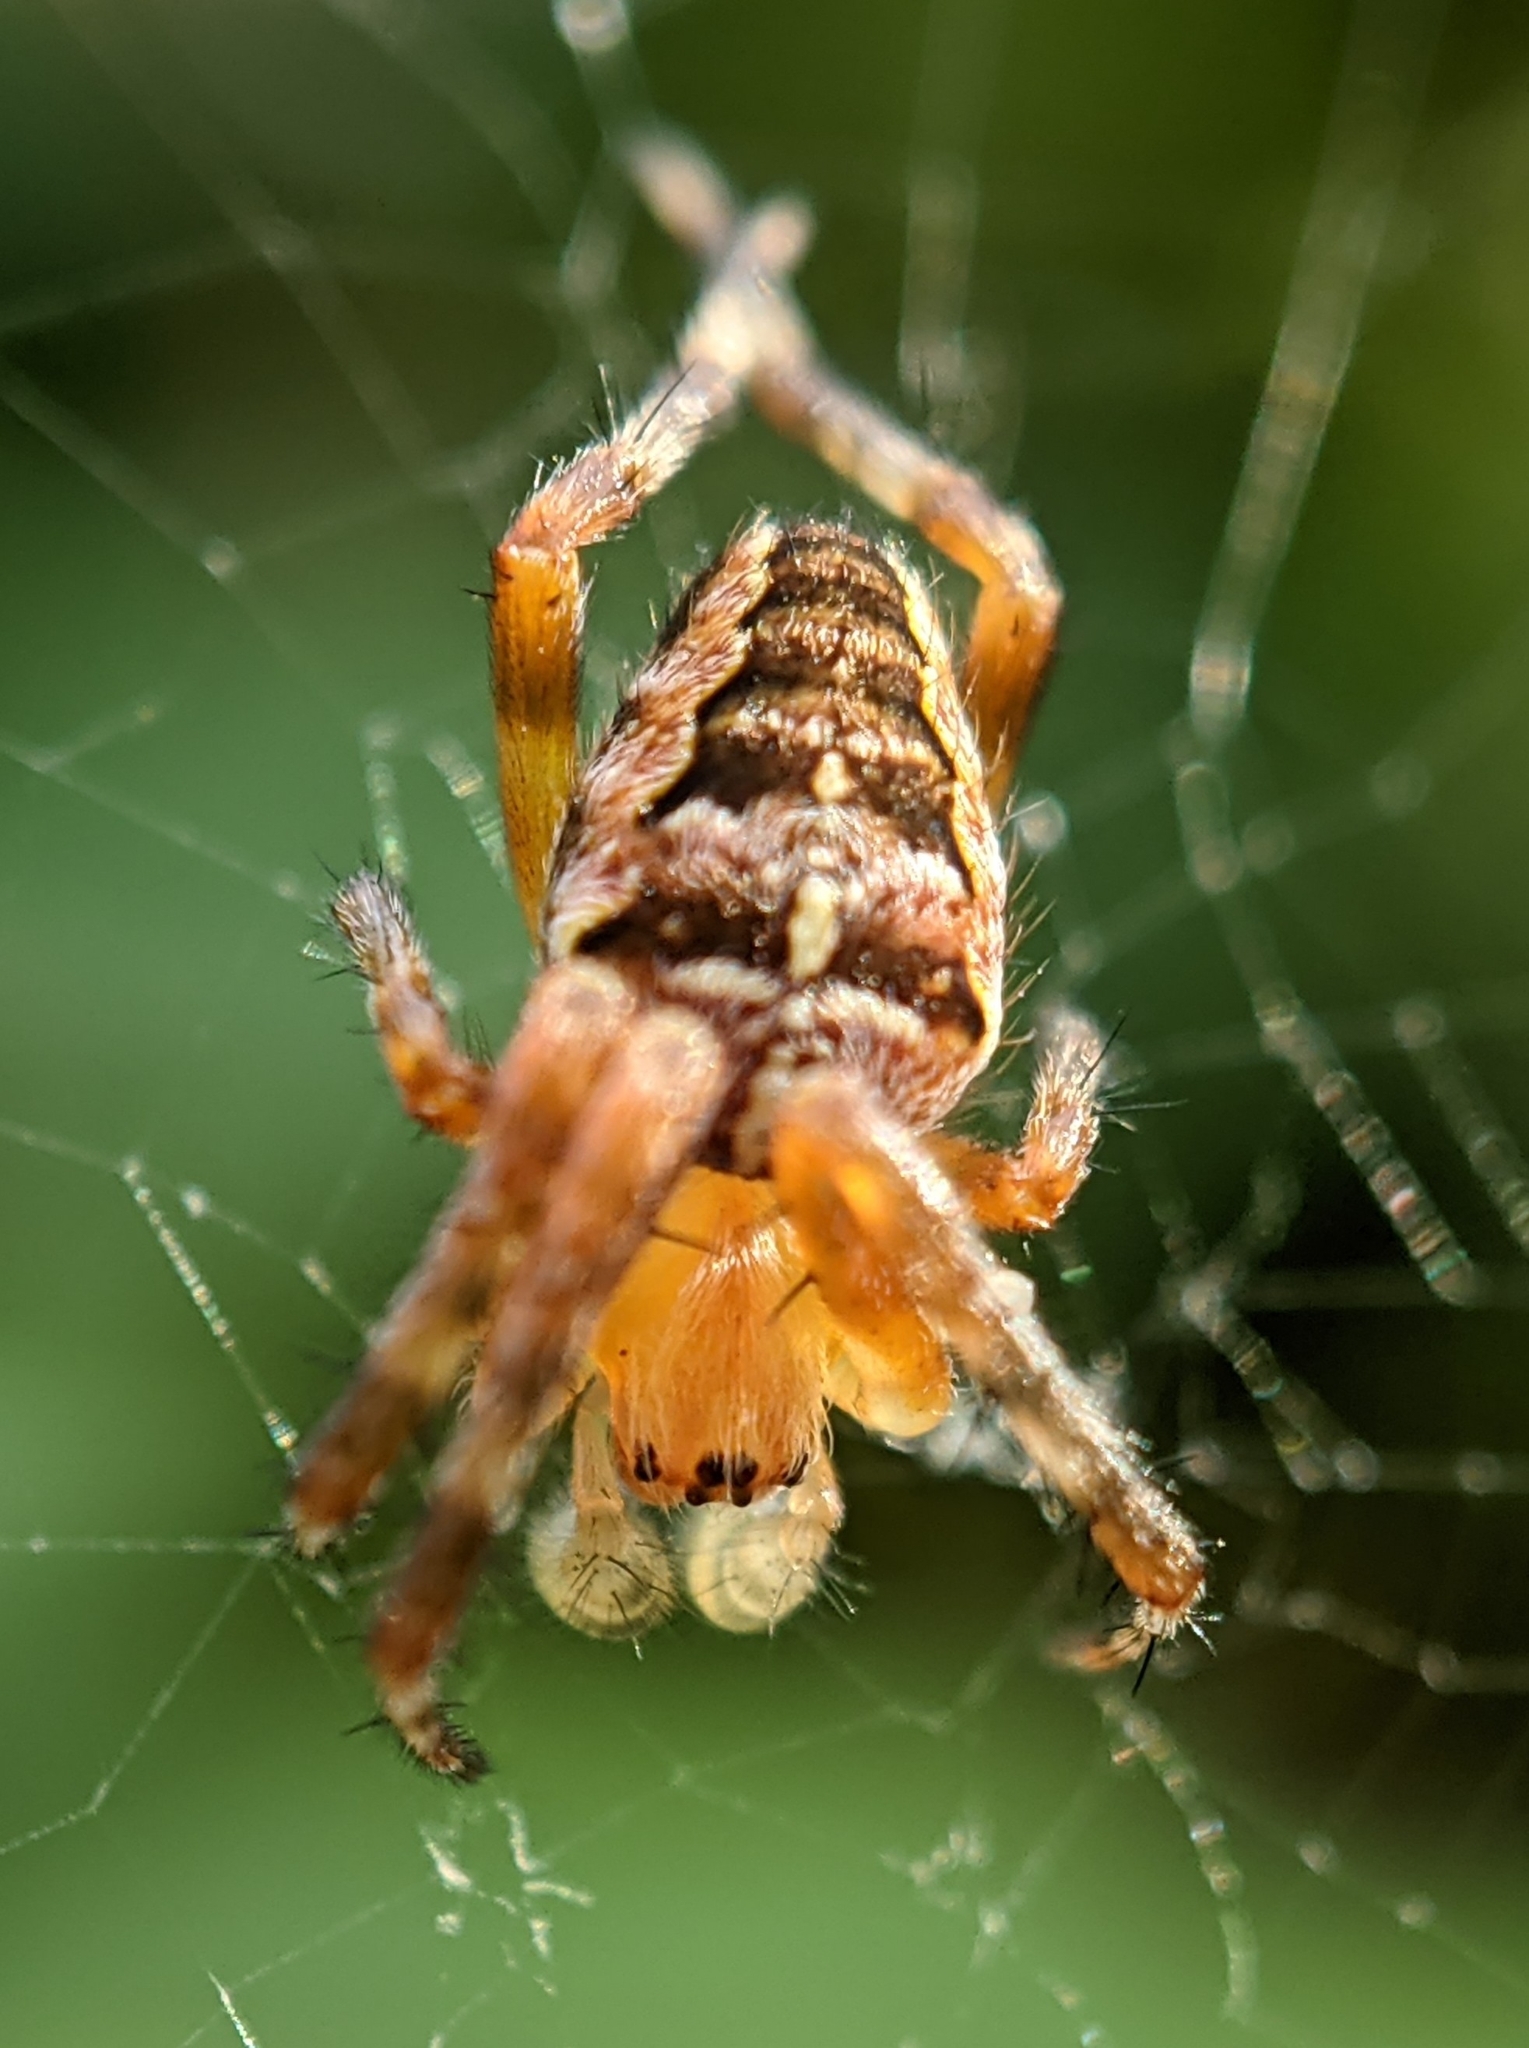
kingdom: Animalia
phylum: Arthropoda
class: Arachnida
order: Araneae
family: Araneidae
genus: Araneus
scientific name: Araneus diadematus
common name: Cross orbweaver
